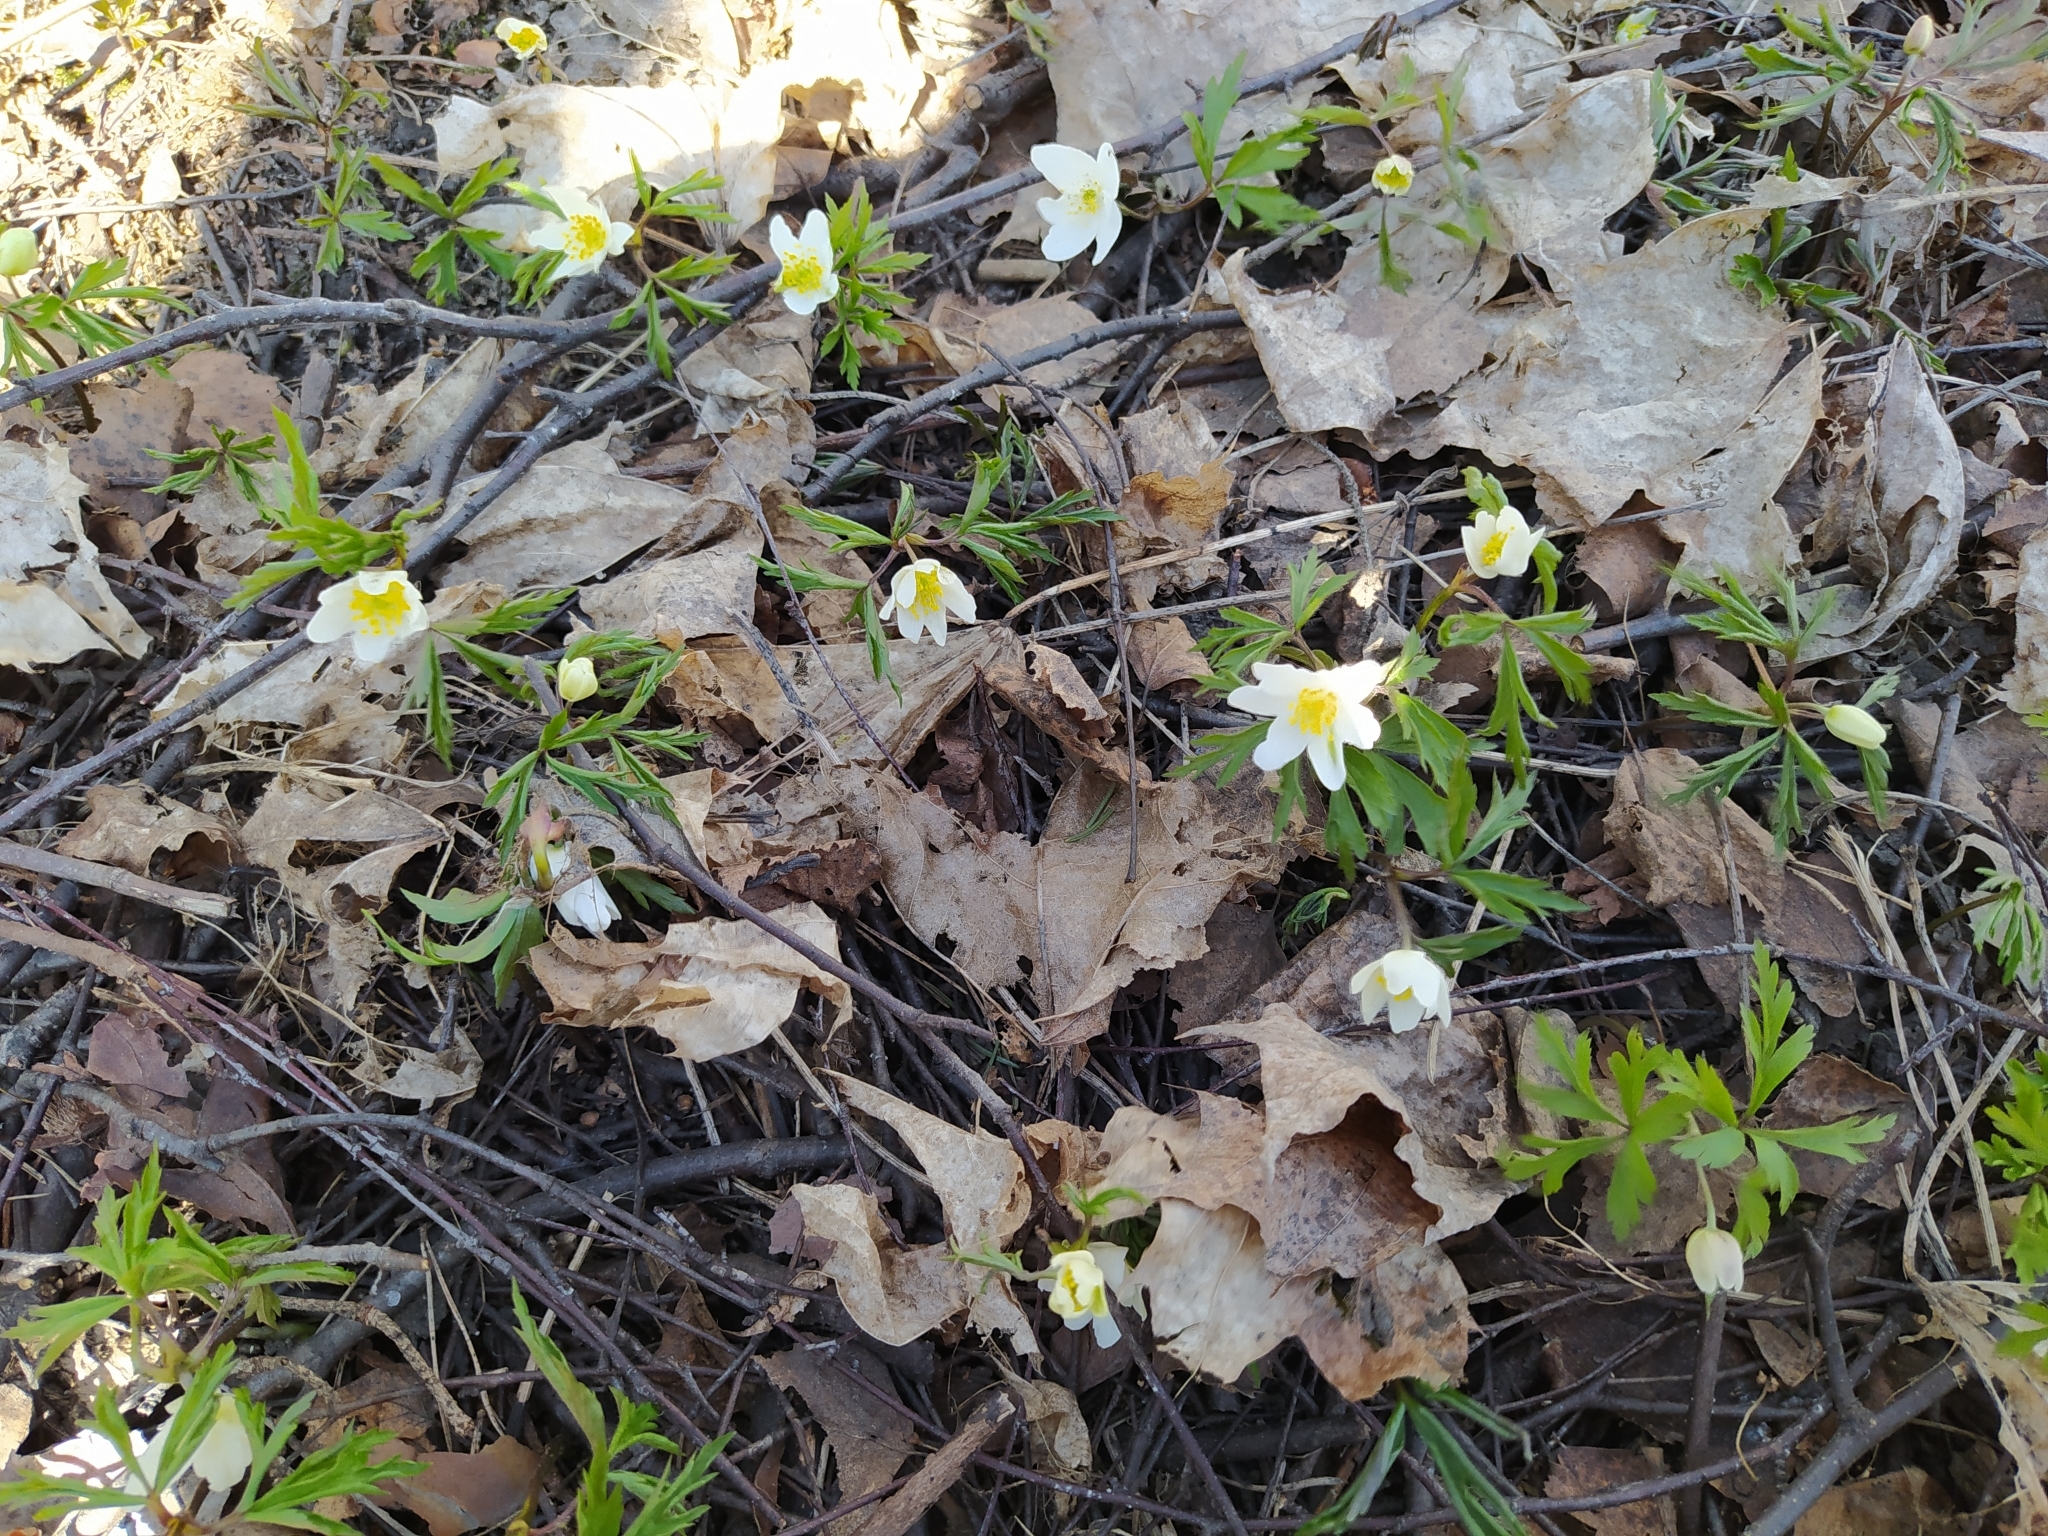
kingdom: Plantae
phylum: Tracheophyta
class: Magnoliopsida
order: Ranunculales
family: Ranunculaceae
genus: Anemone
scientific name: Anemone nemorosa
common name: Wood anemone
